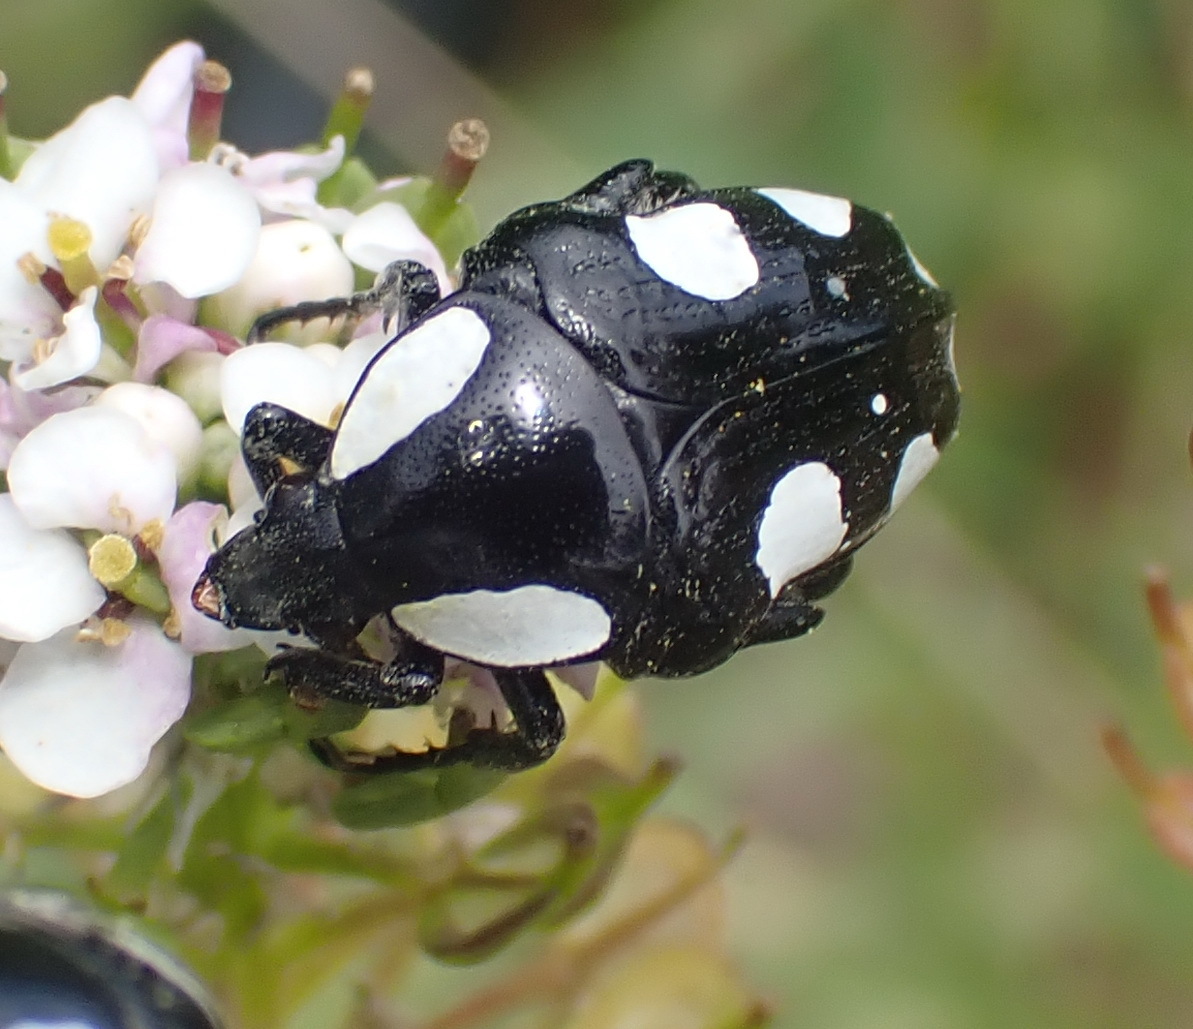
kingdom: Animalia
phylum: Arthropoda
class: Insecta
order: Coleoptera
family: Scarabaeidae
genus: Mausoleopsis
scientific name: Mausoleopsis amabilis
